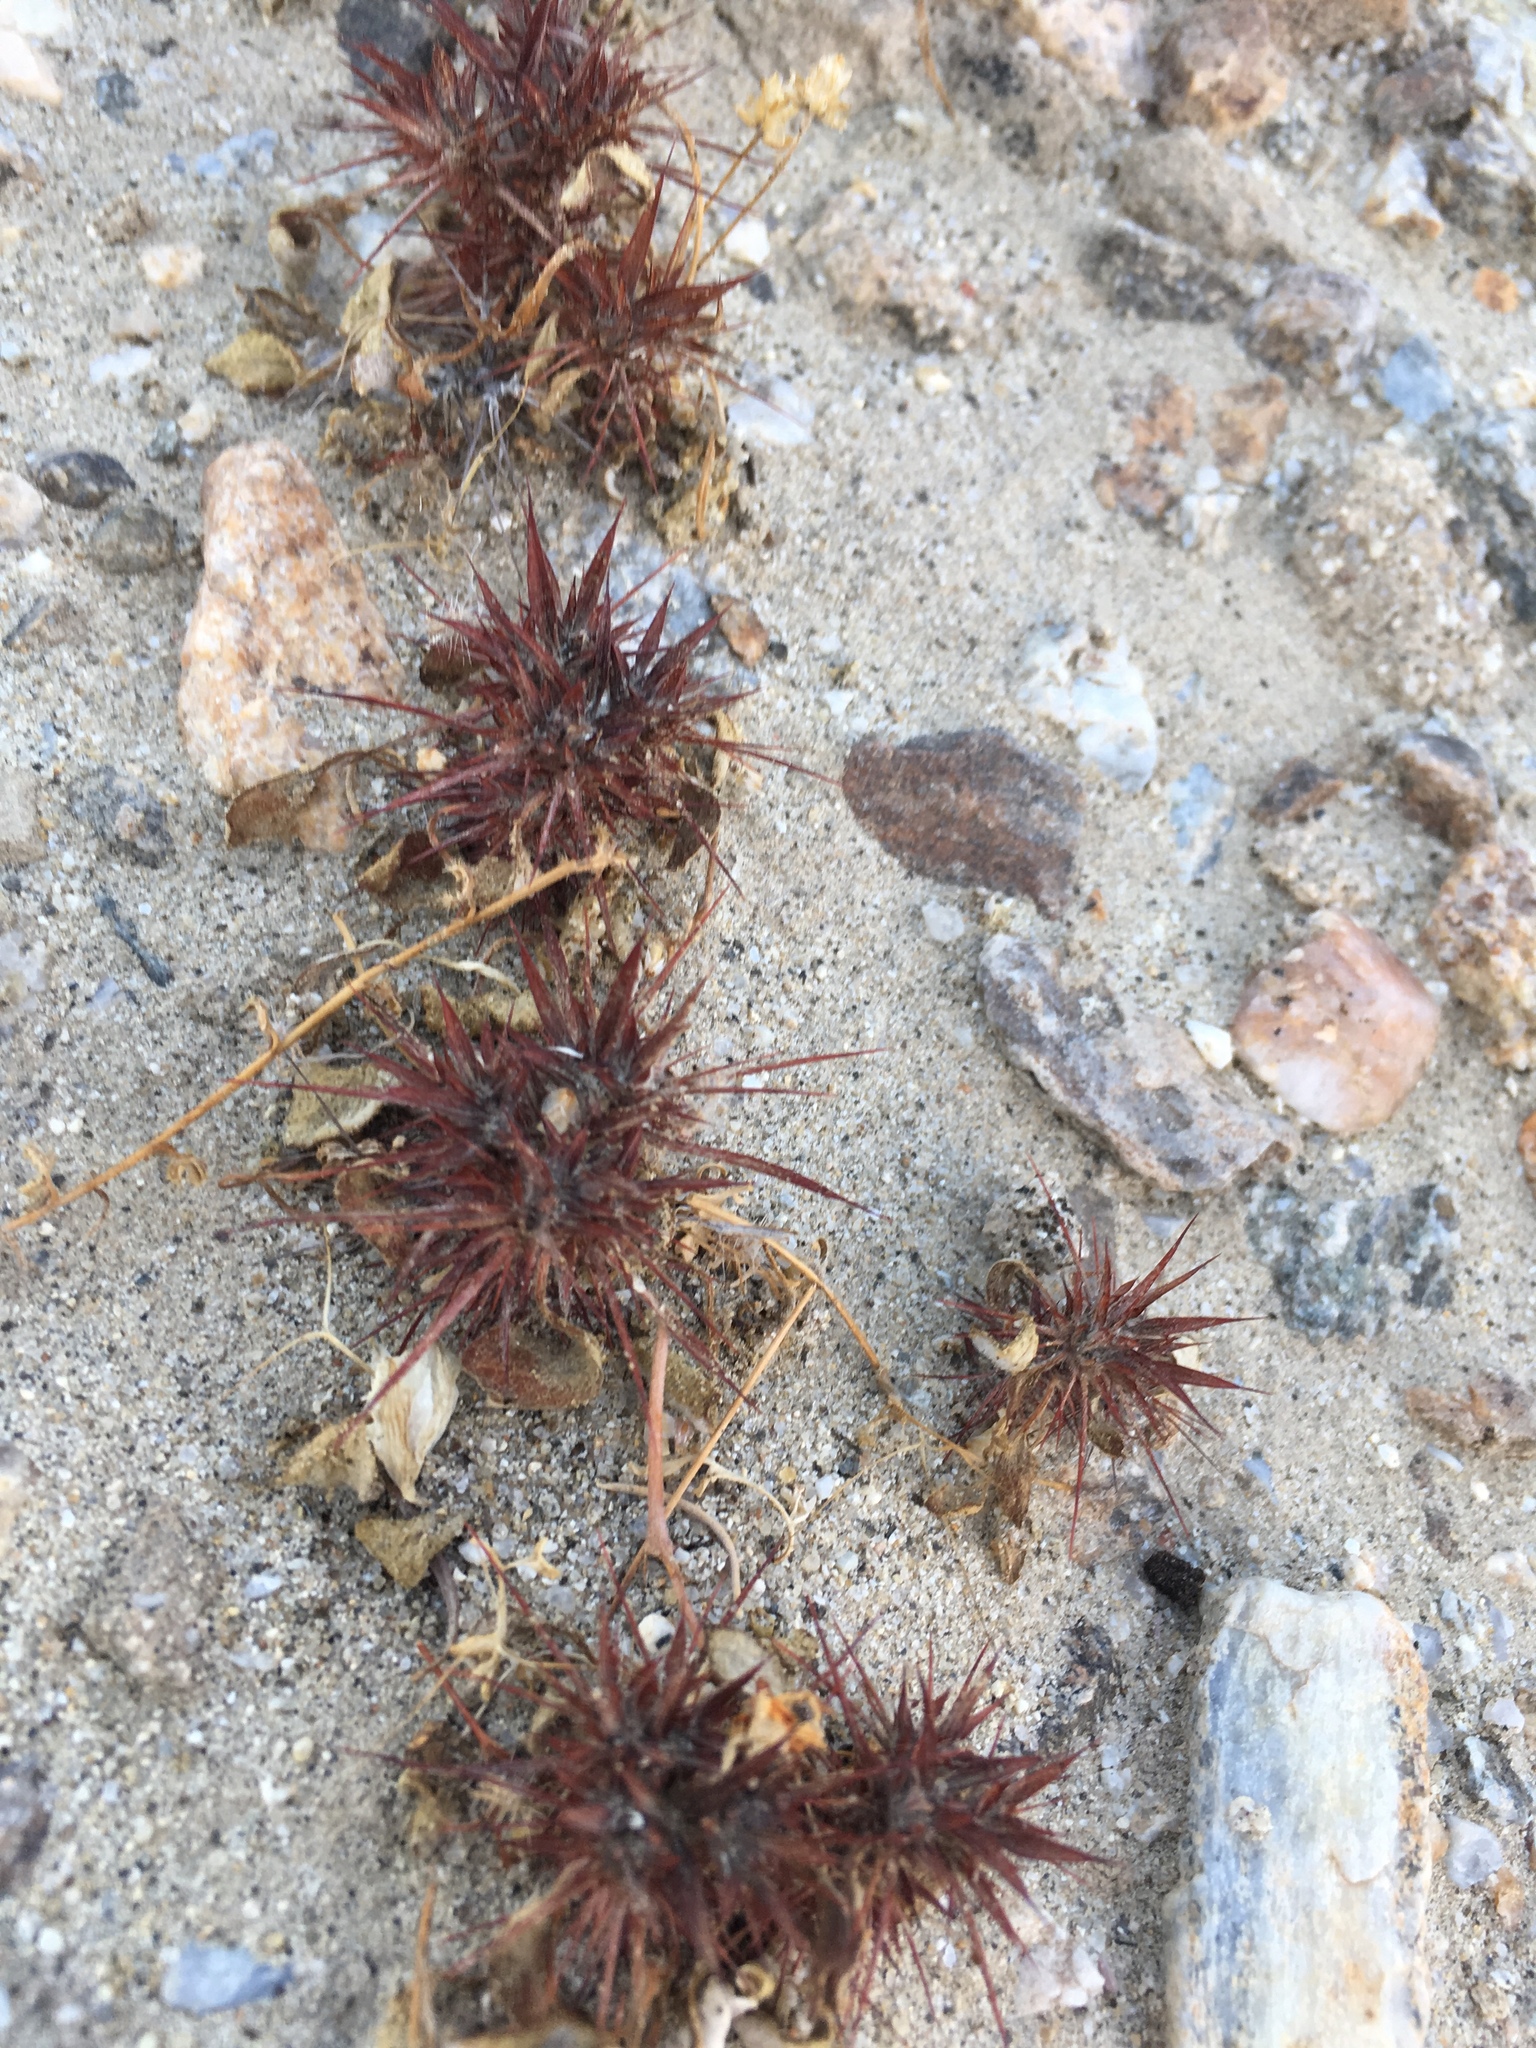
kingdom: Plantae
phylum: Tracheophyta
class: Magnoliopsida
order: Caryophyllales
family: Polygonaceae
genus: Chorizanthe
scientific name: Chorizanthe rigida
